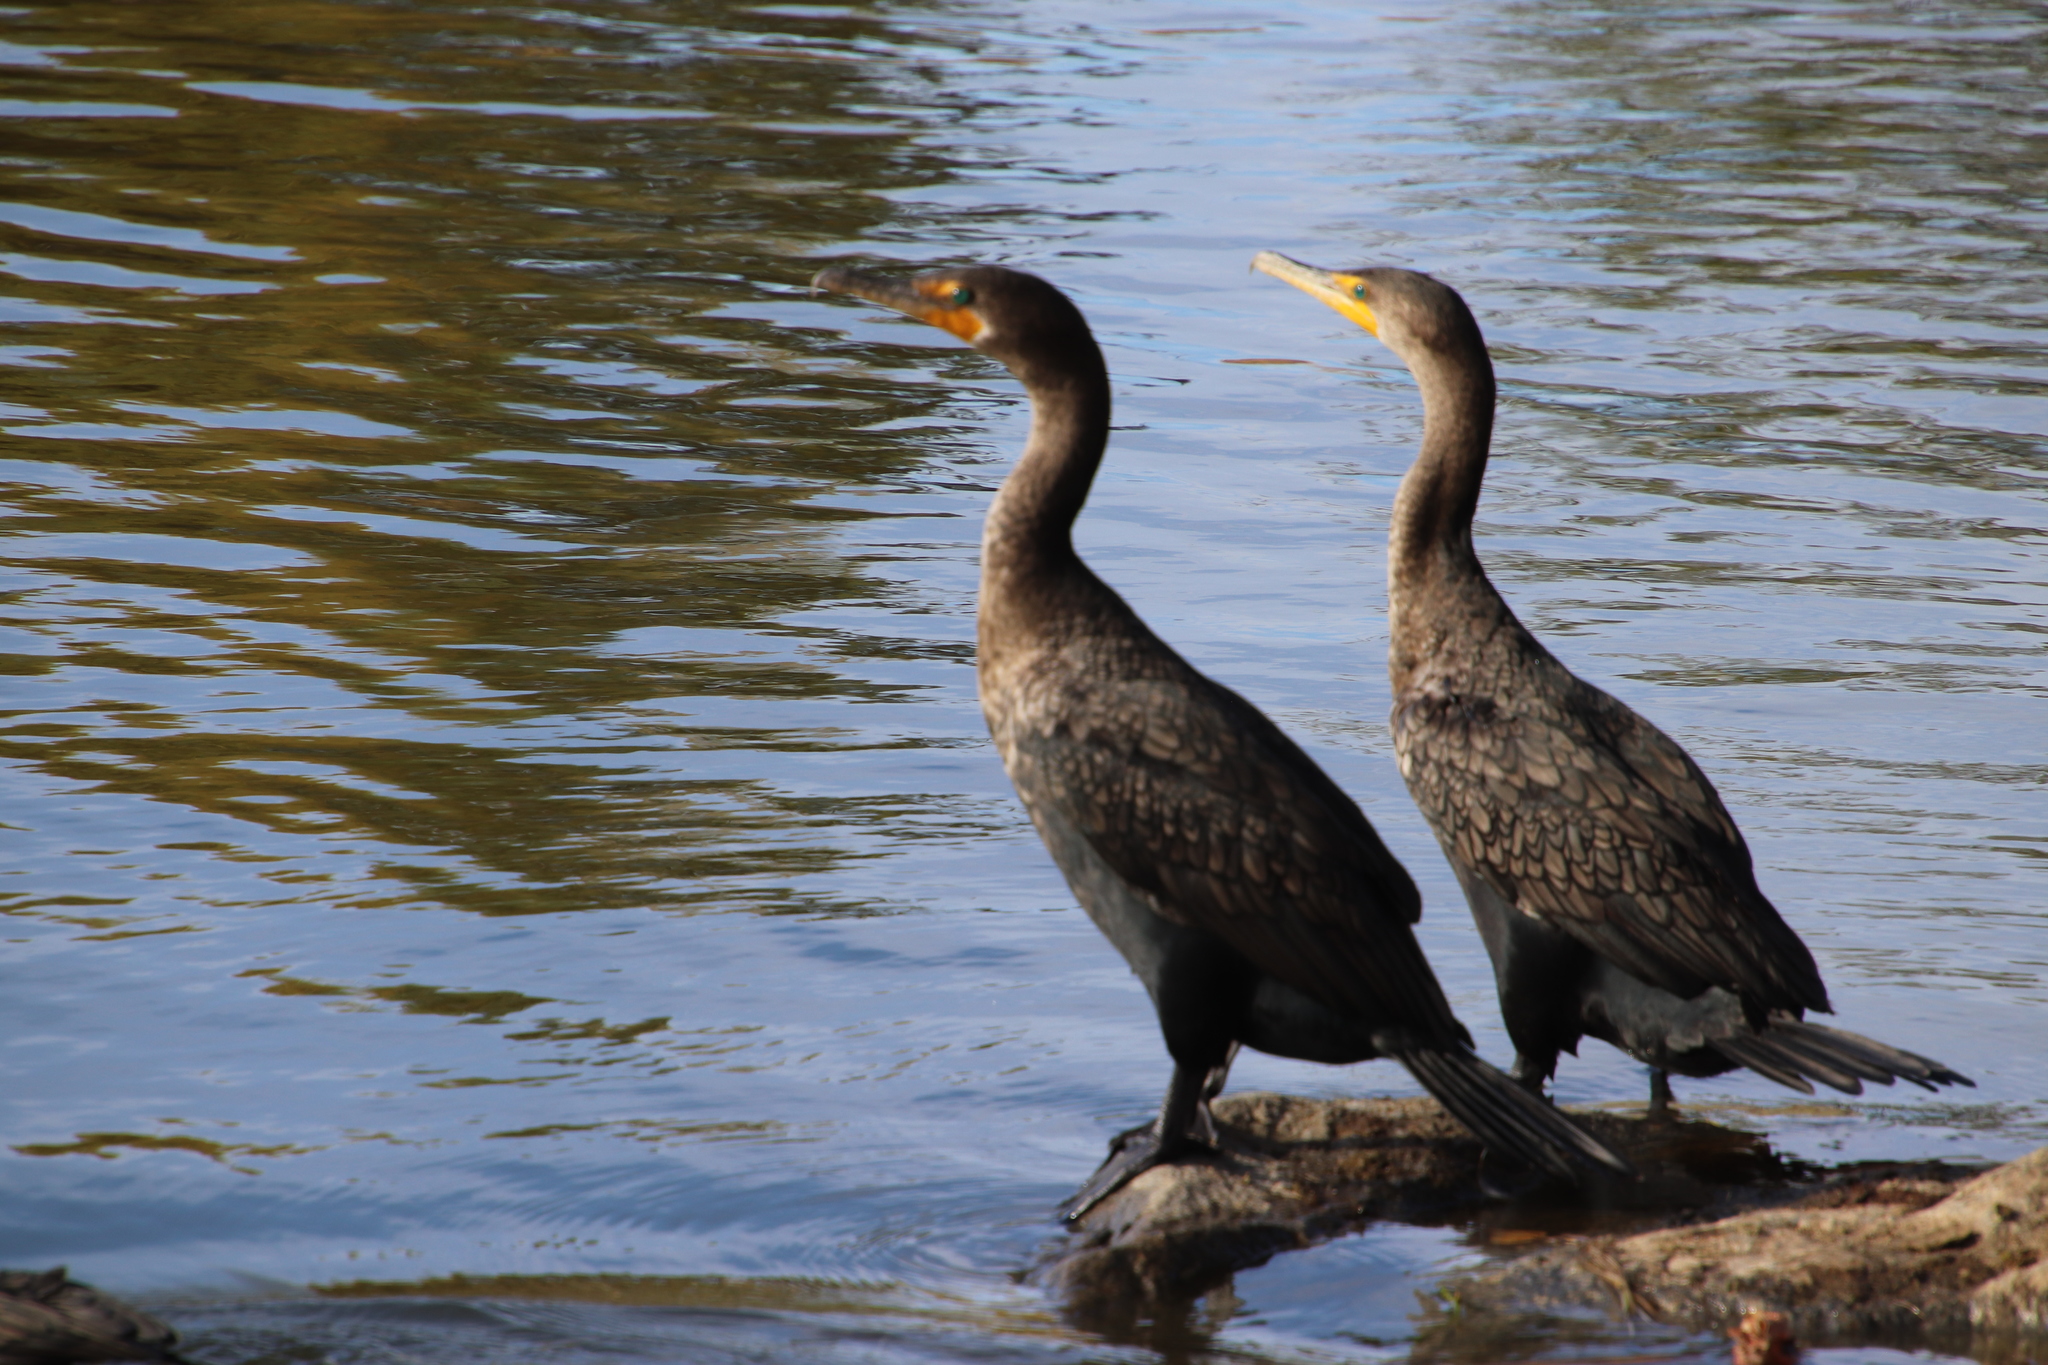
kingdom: Animalia
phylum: Chordata
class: Aves
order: Suliformes
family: Phalacrocoracidae
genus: Phalacrocorax
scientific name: Phalacrocorax auritus
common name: Double-crested cormorant
